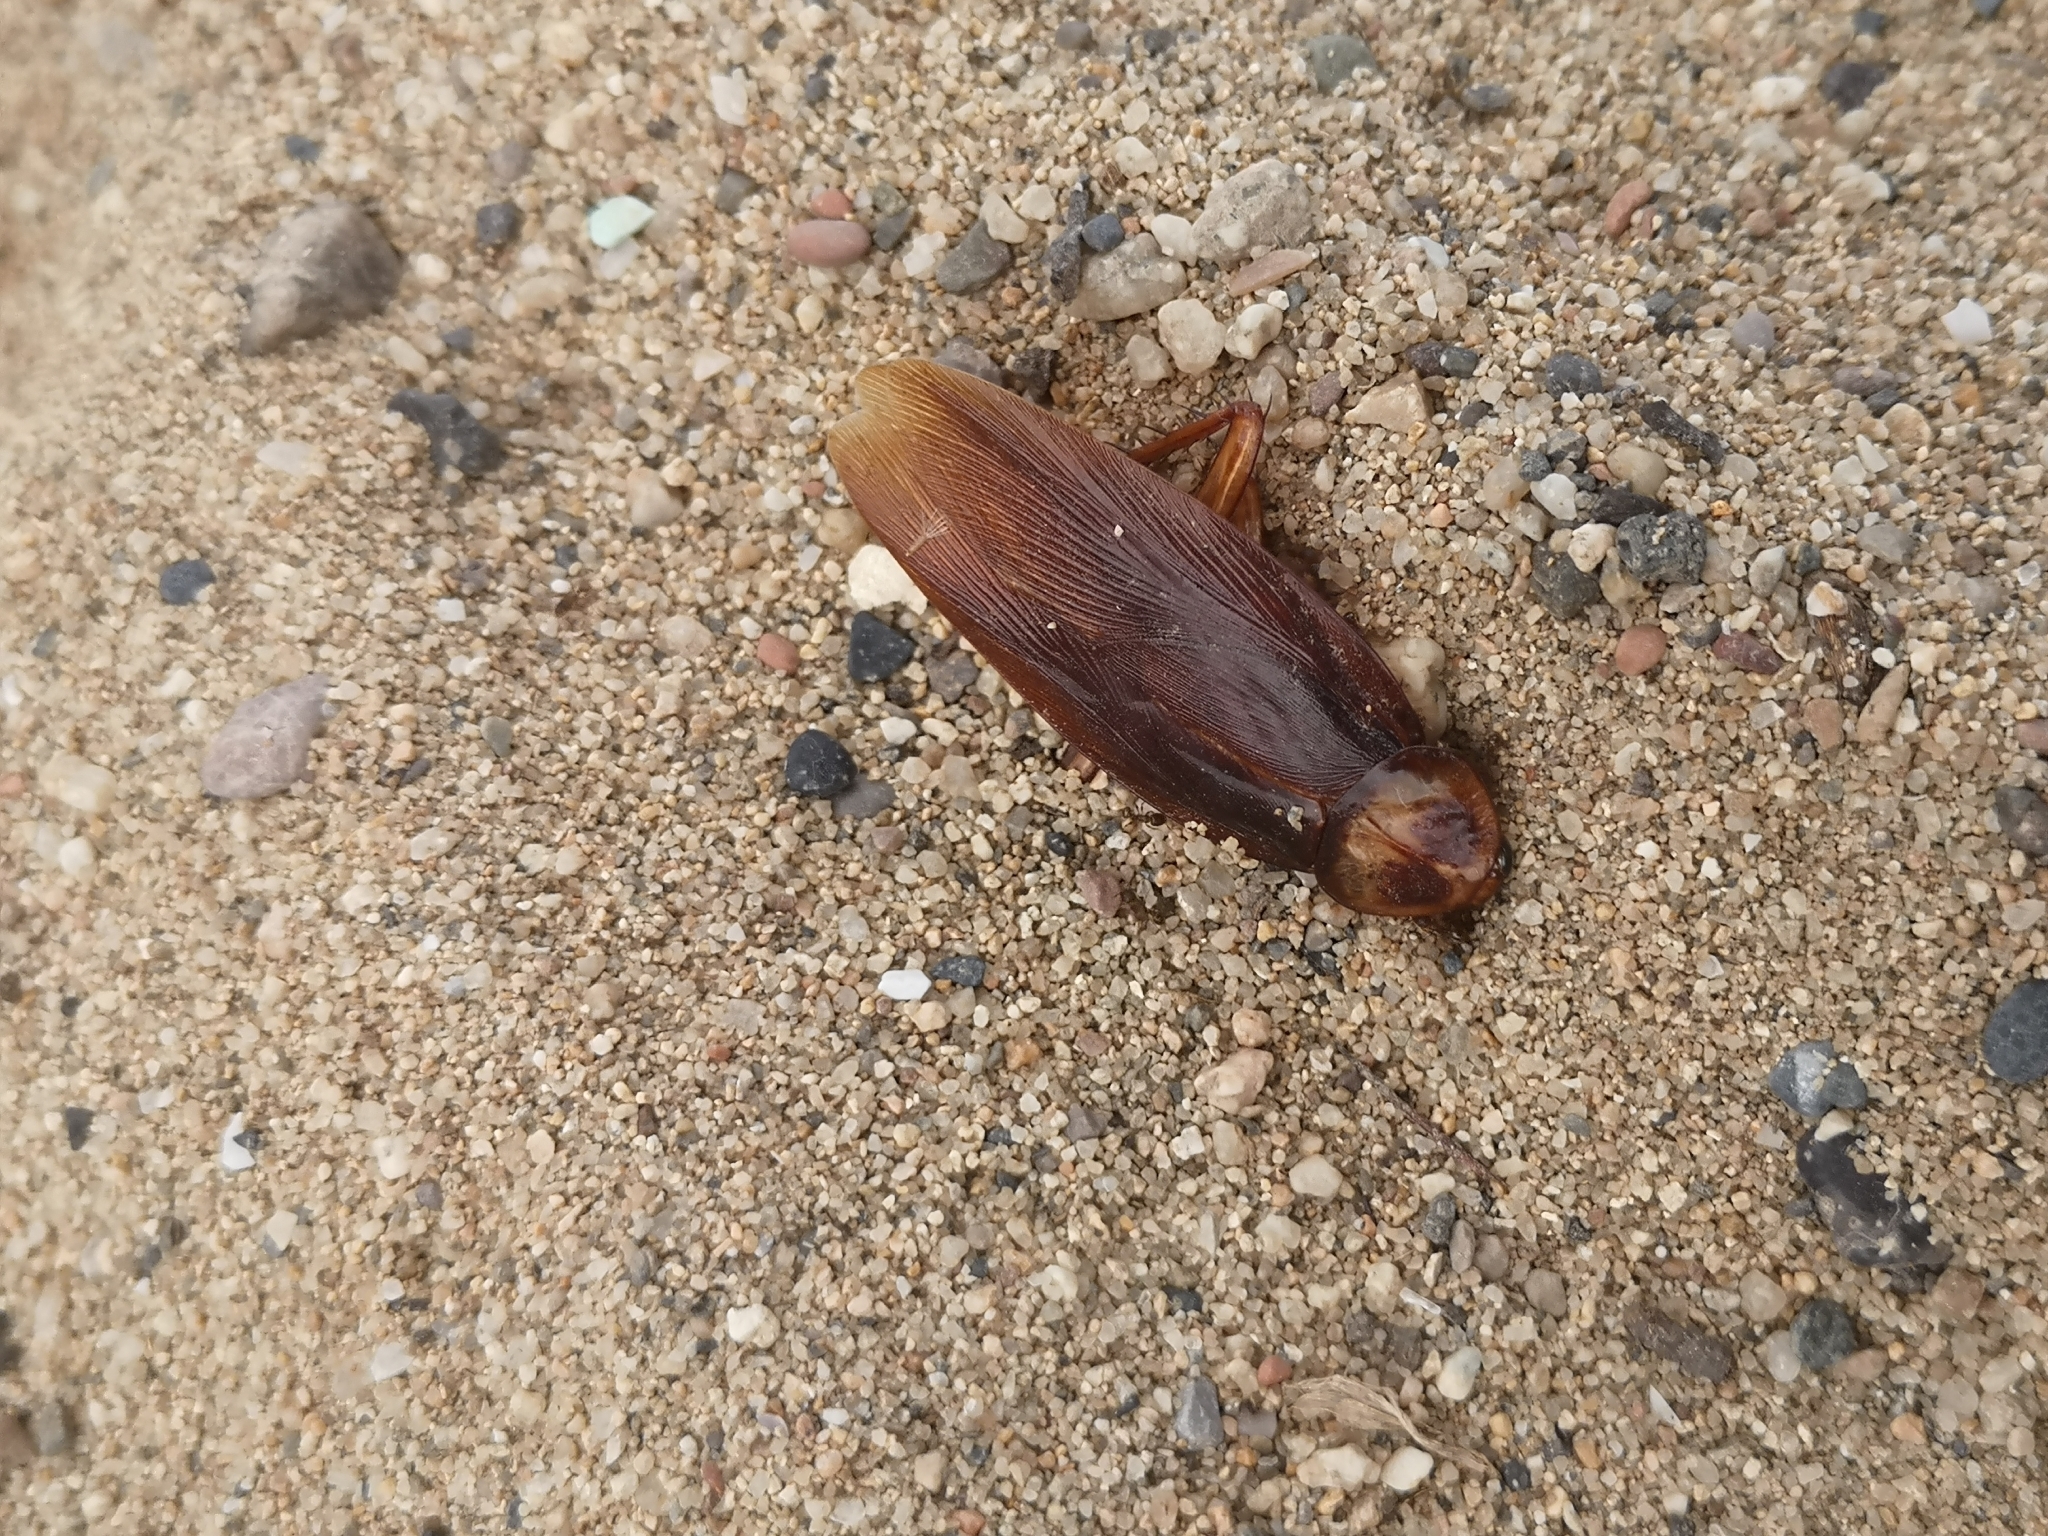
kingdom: Animalia
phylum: Arthropoda
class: Insecta
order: Blattodea
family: Blattidae
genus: Periplaneta
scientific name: Periplaneta americana
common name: American cockroach
